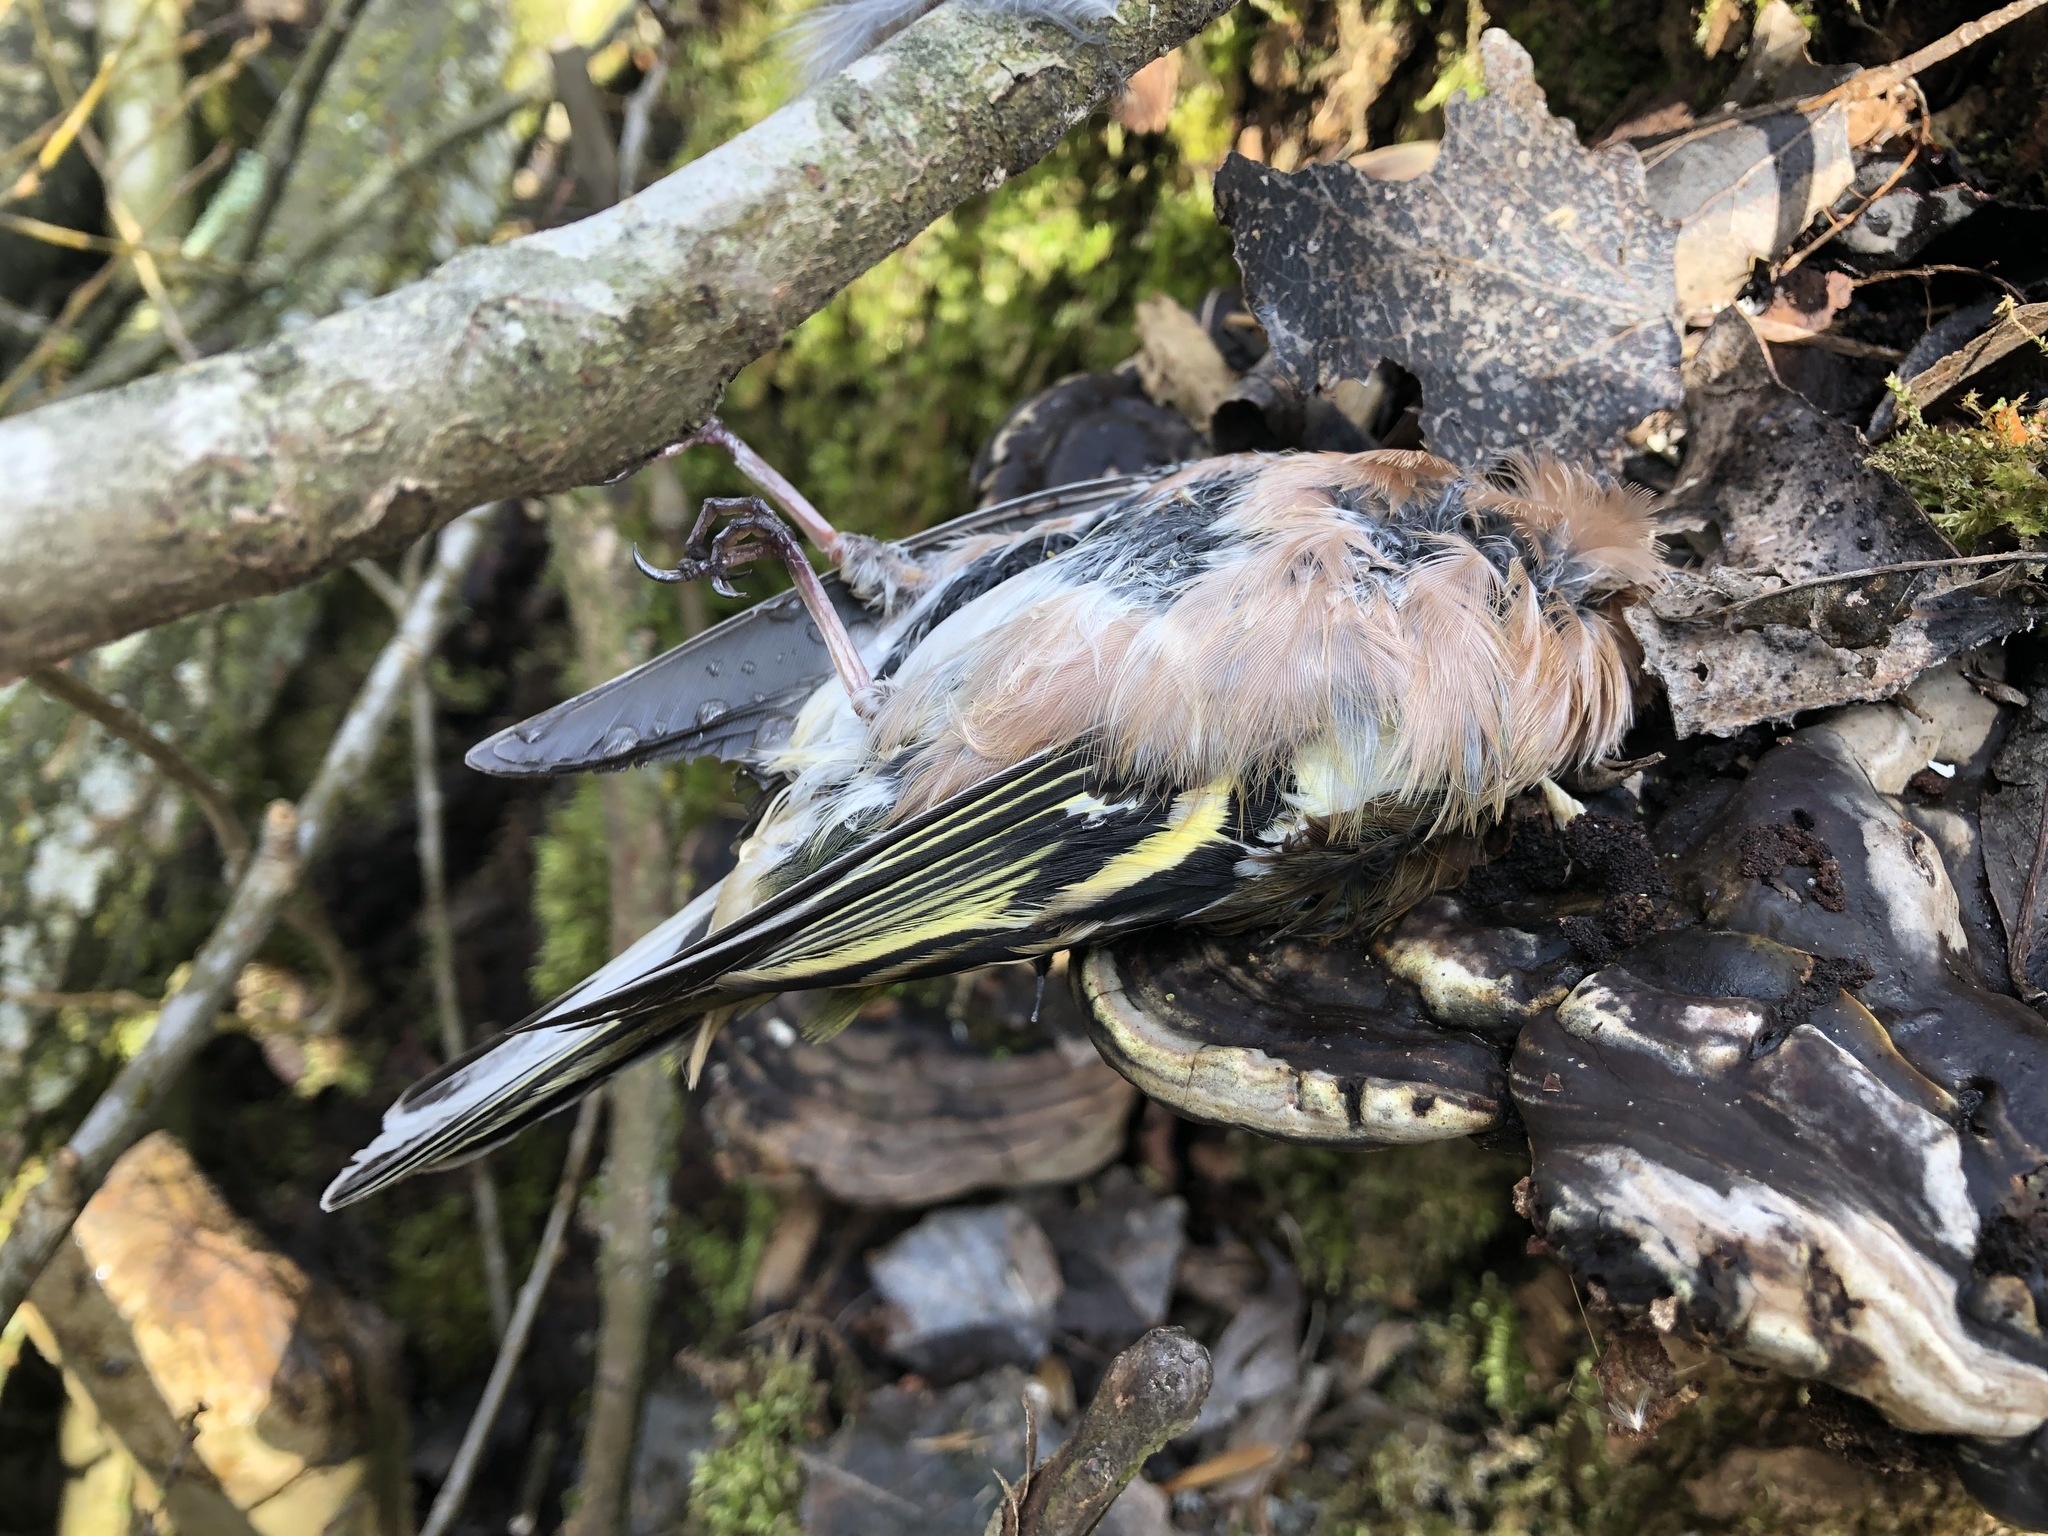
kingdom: Animalia
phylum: Chordata
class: Aves
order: Passeriformes
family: Fringillidae
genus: Fringilla
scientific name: Fringilla coelebs
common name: Common chaffinch
